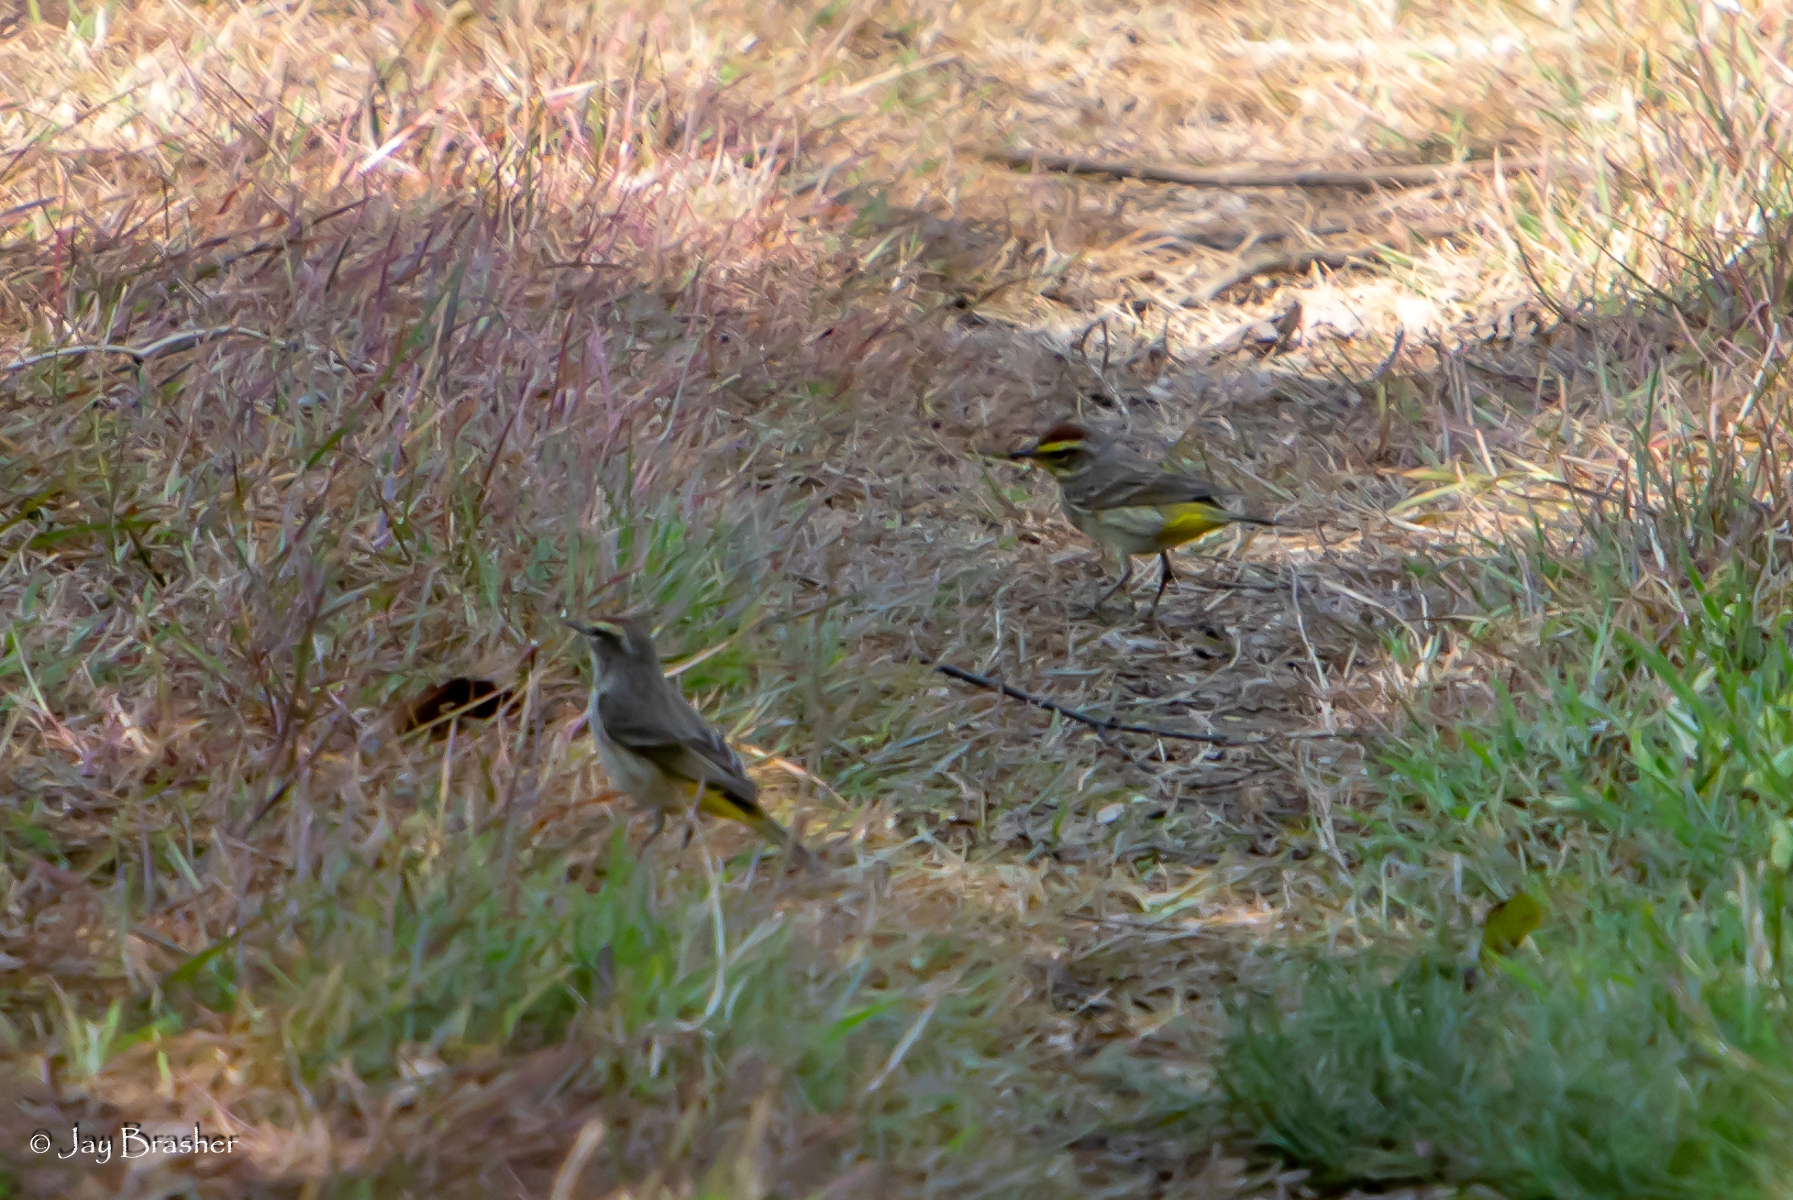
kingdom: Animalia
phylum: Chordata
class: Aves
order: Passeriformes
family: Parulidae
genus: Setophaga
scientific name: Setophaga palmarum
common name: Palm warbler
